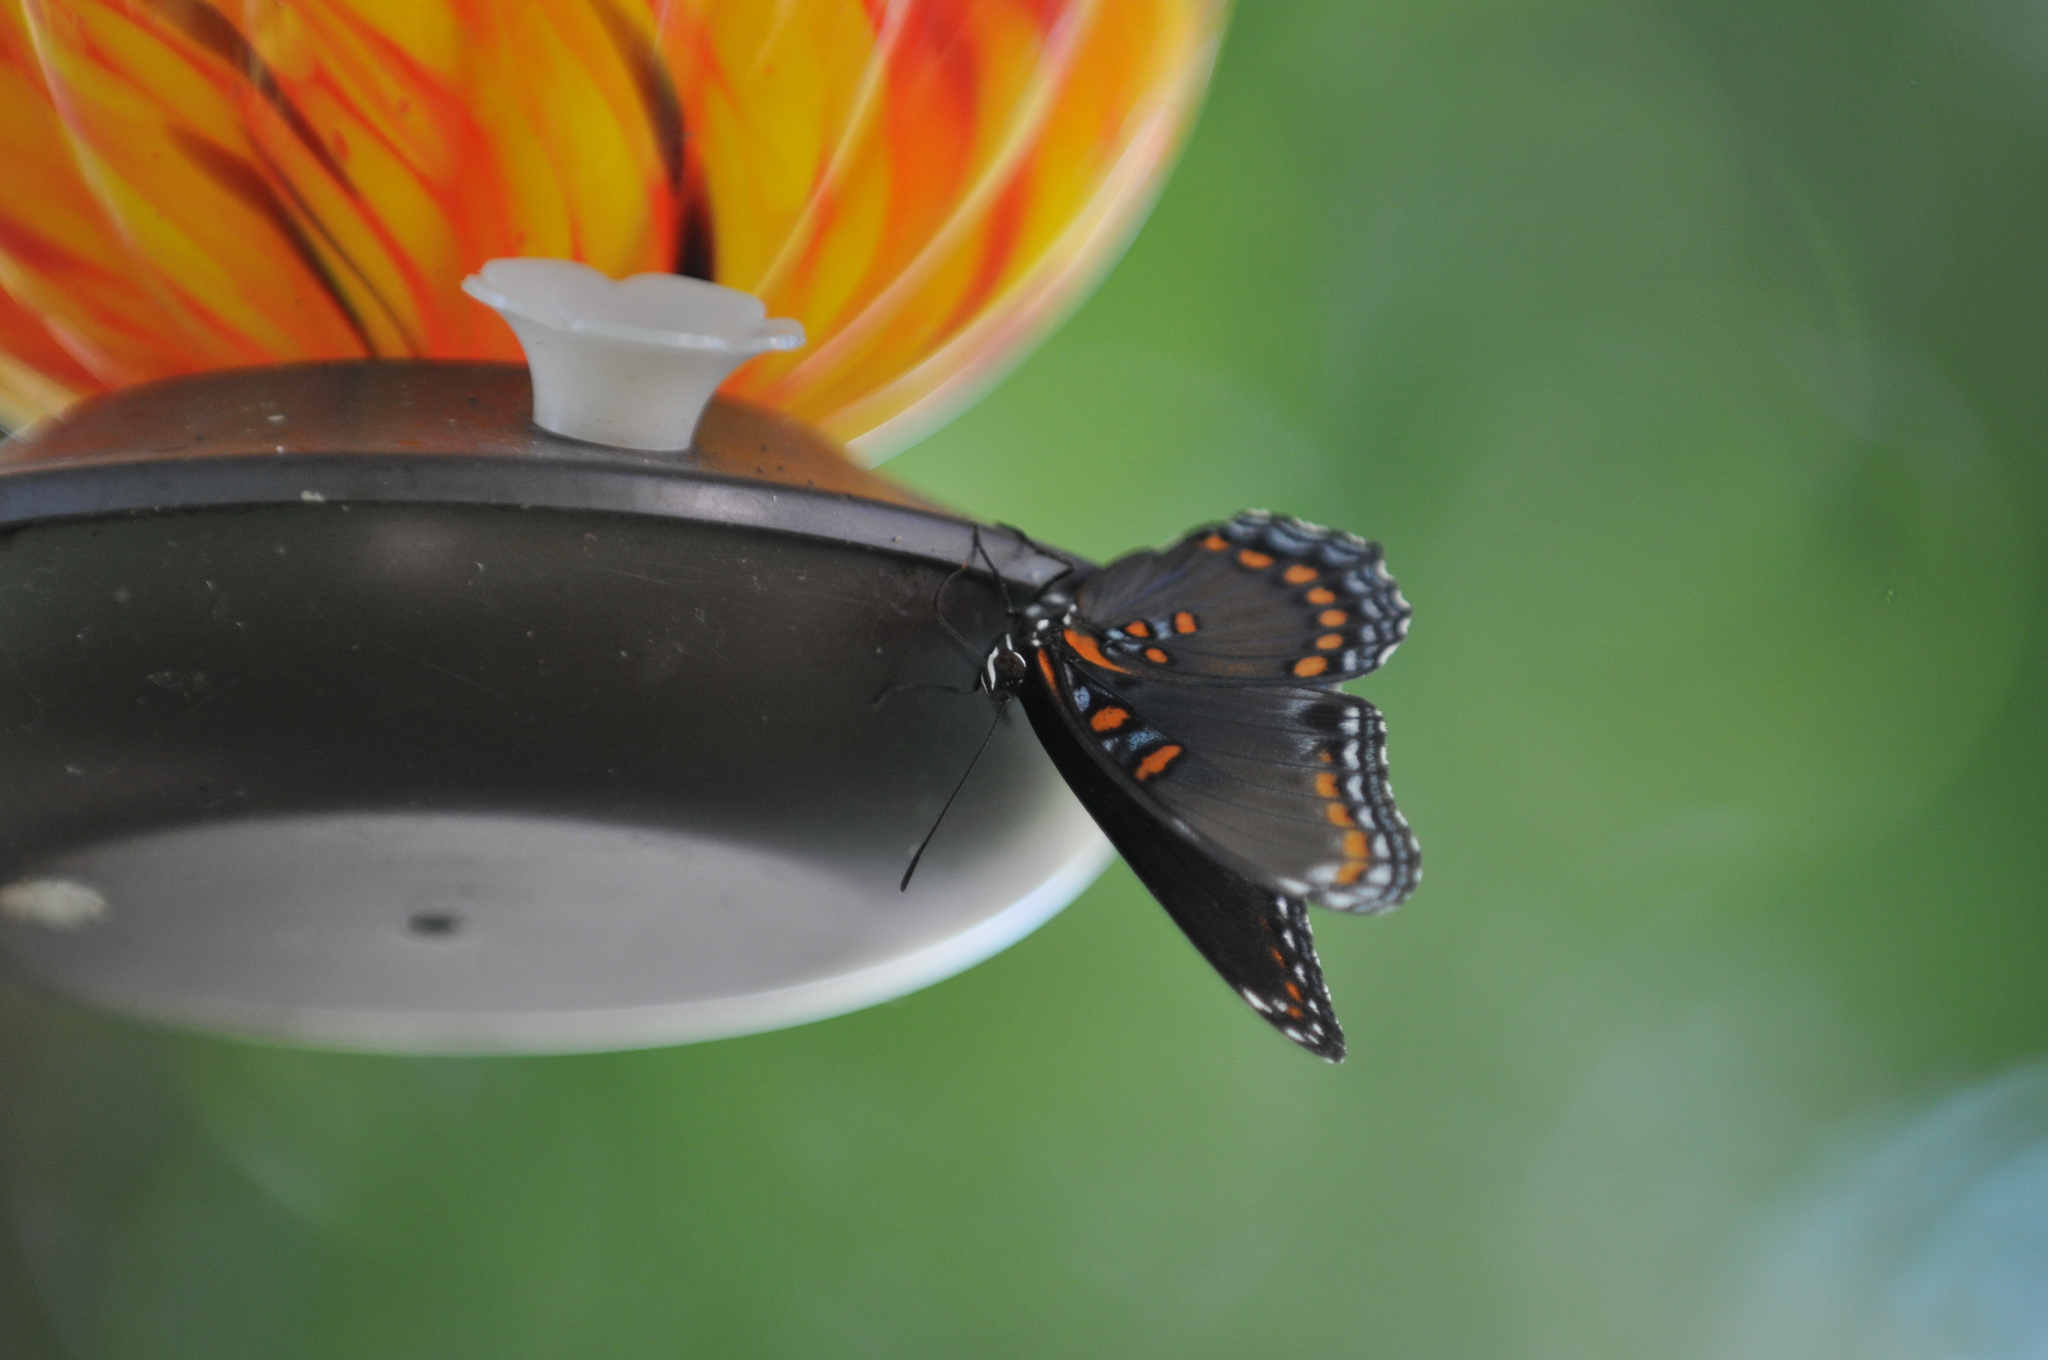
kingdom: Animalia
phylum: Arthropoda
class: Insecta
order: Lepidoptera
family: Nymphalidae
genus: Limenitis
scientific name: Limenitis astyanax
